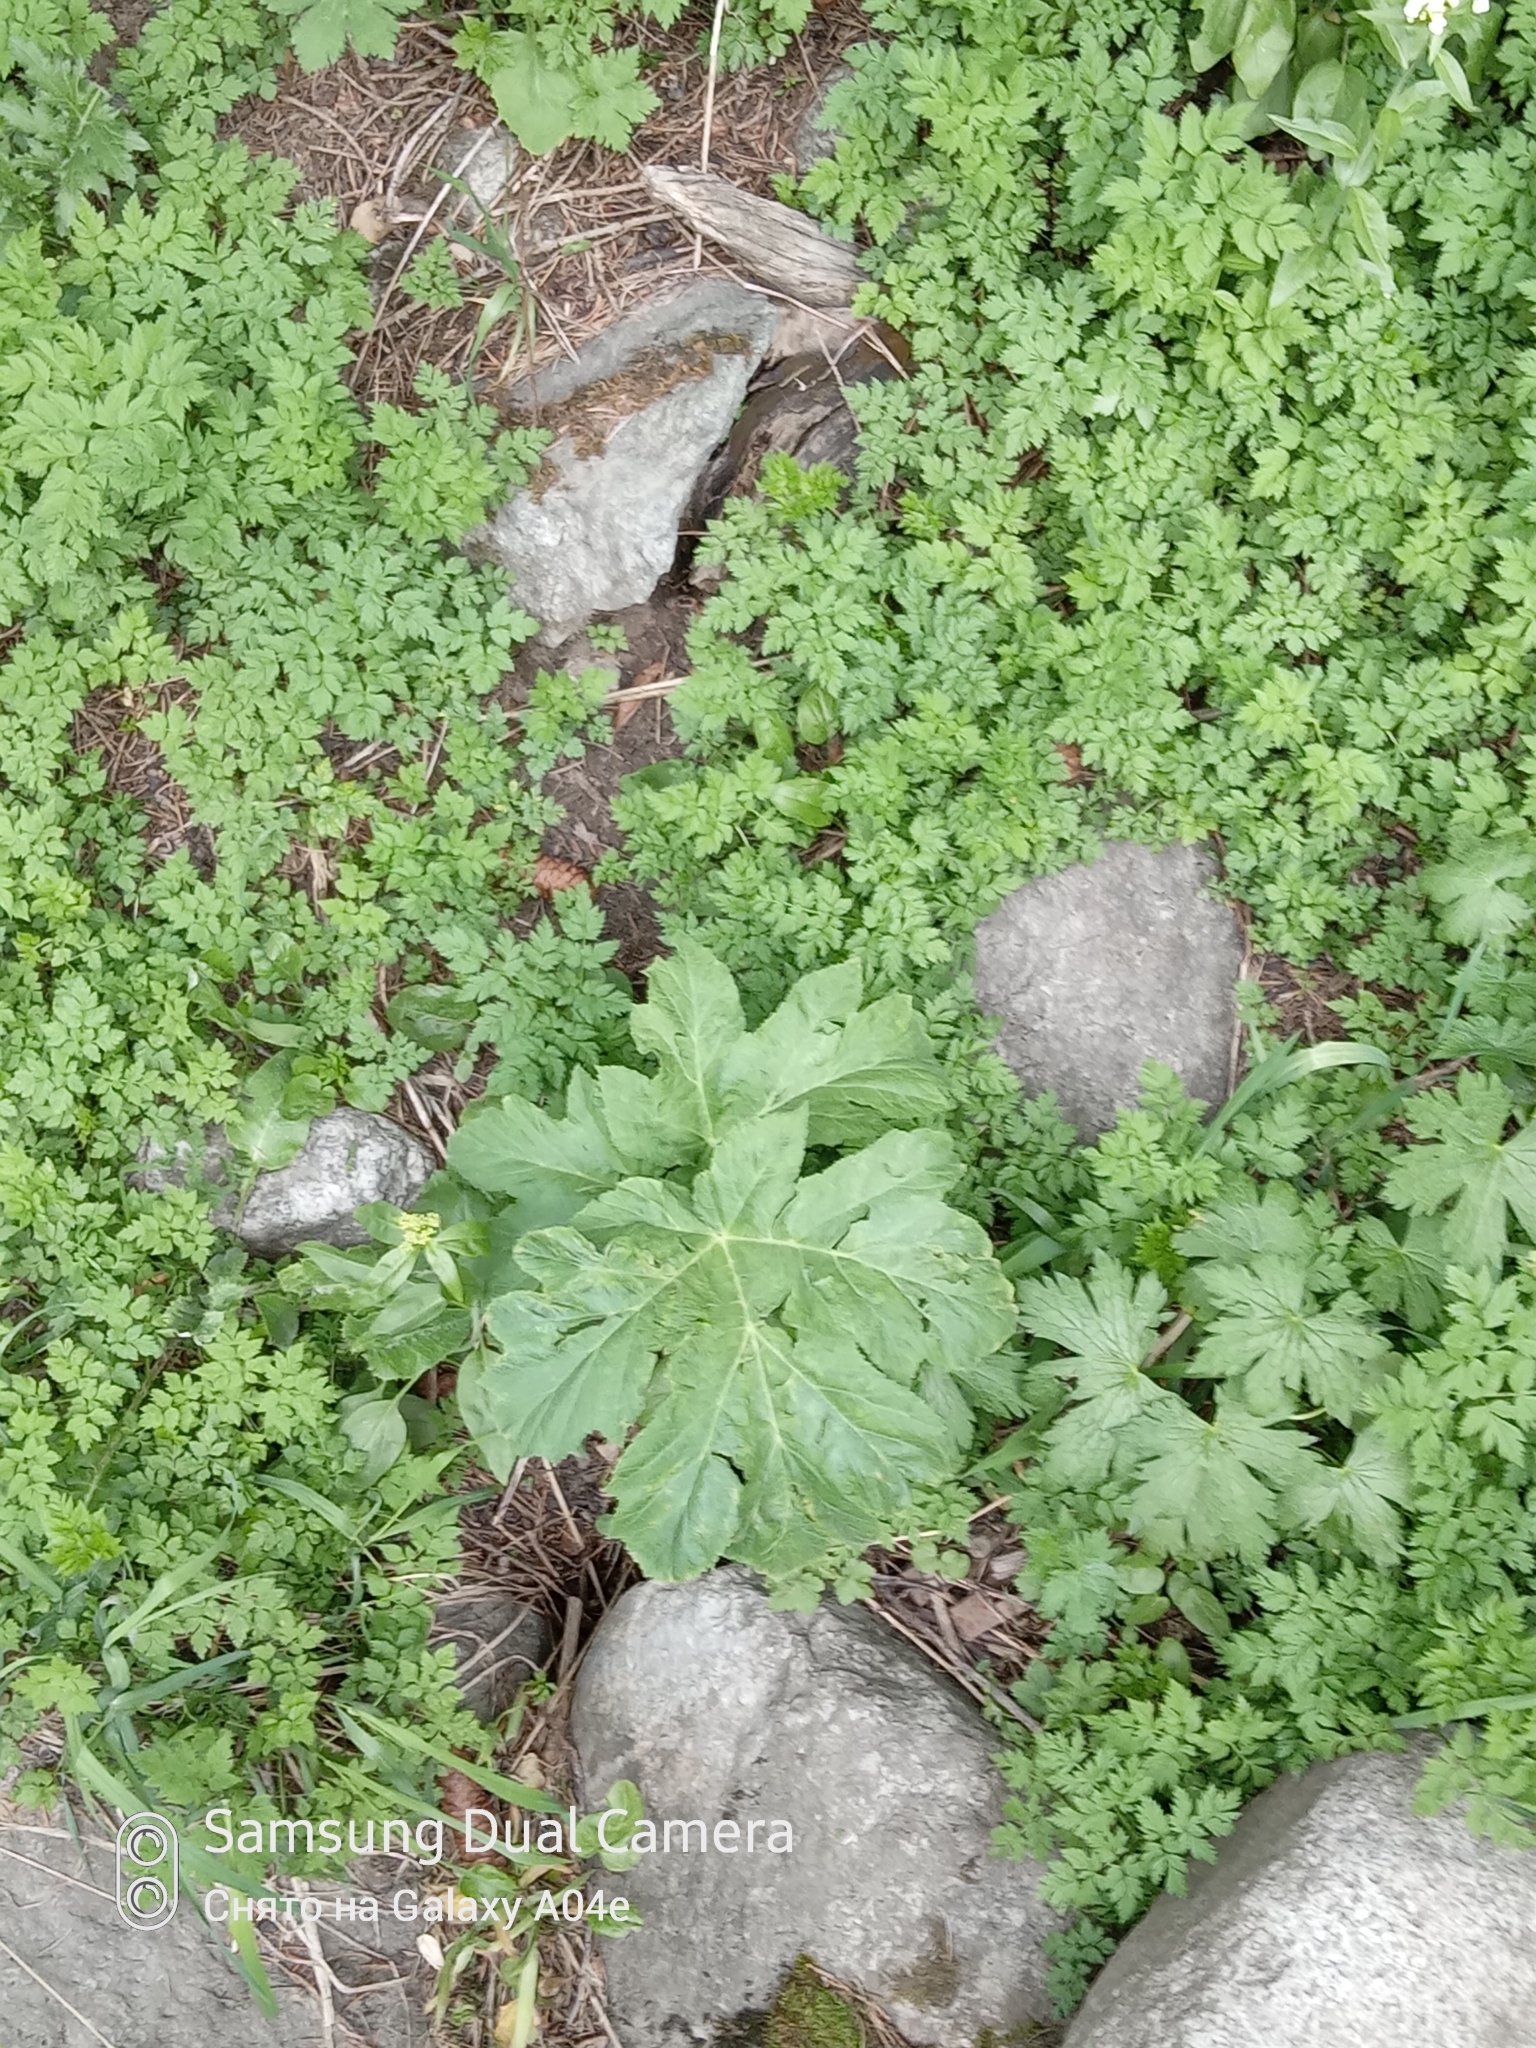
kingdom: Plantae
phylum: Tracheophyta
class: Magnoliopsida
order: Apiales
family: Apiaceae
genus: Heracleum
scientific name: Heracleum dissectum
